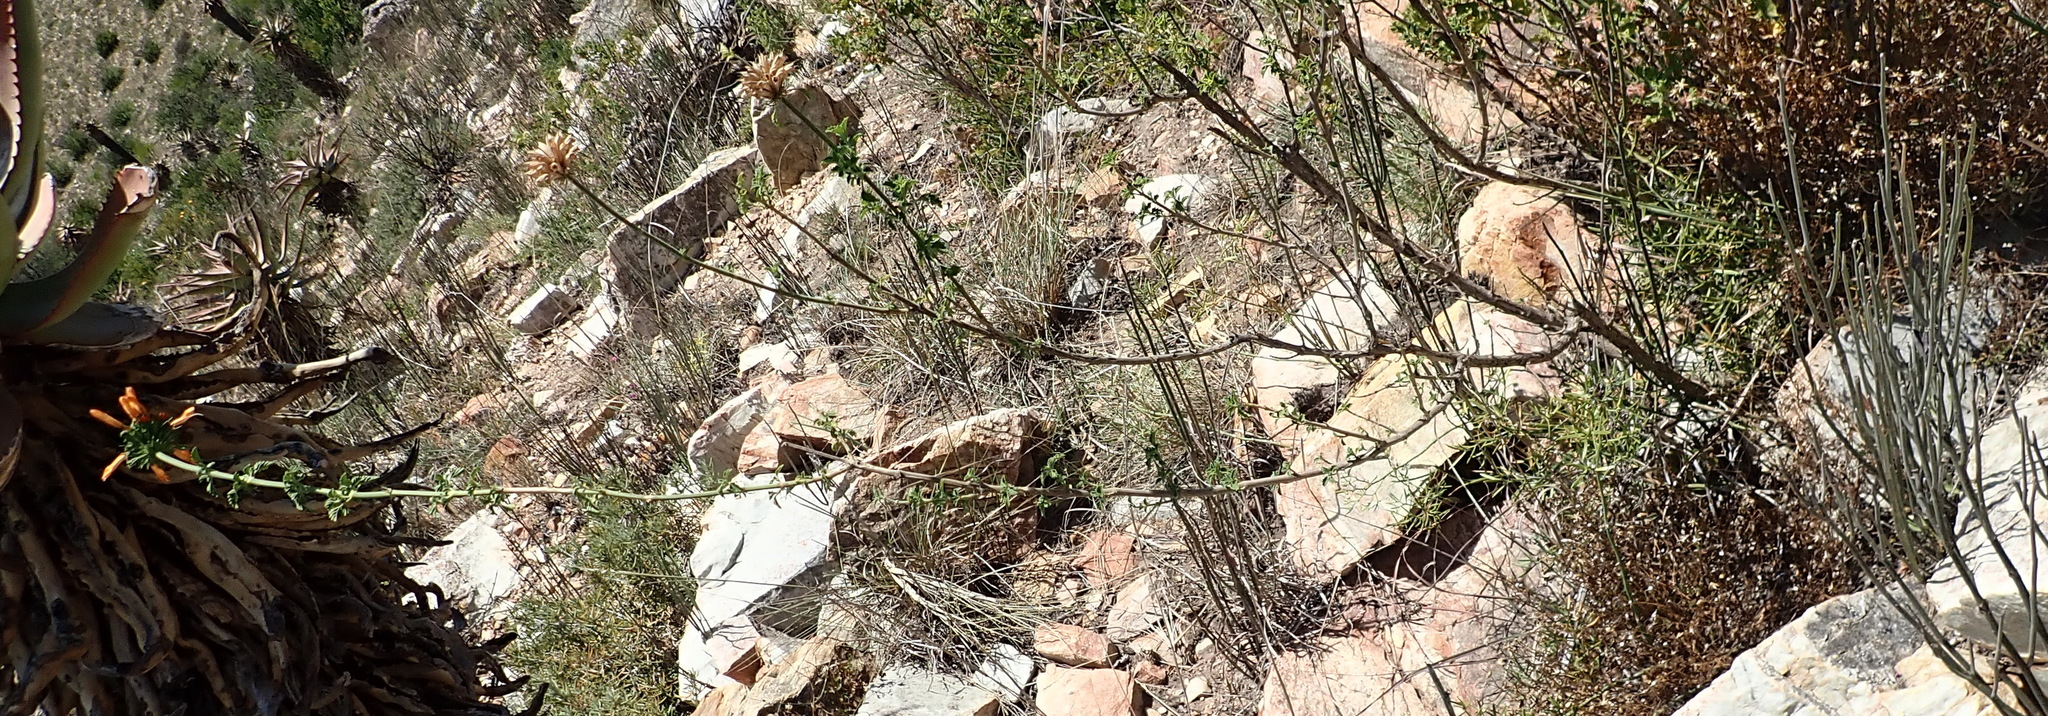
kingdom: Plantae
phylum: Tracheophyta
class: Magnoliopsida
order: Lamiales
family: Lamiaceae
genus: Leonotis
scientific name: Leonotis ocymifolia
